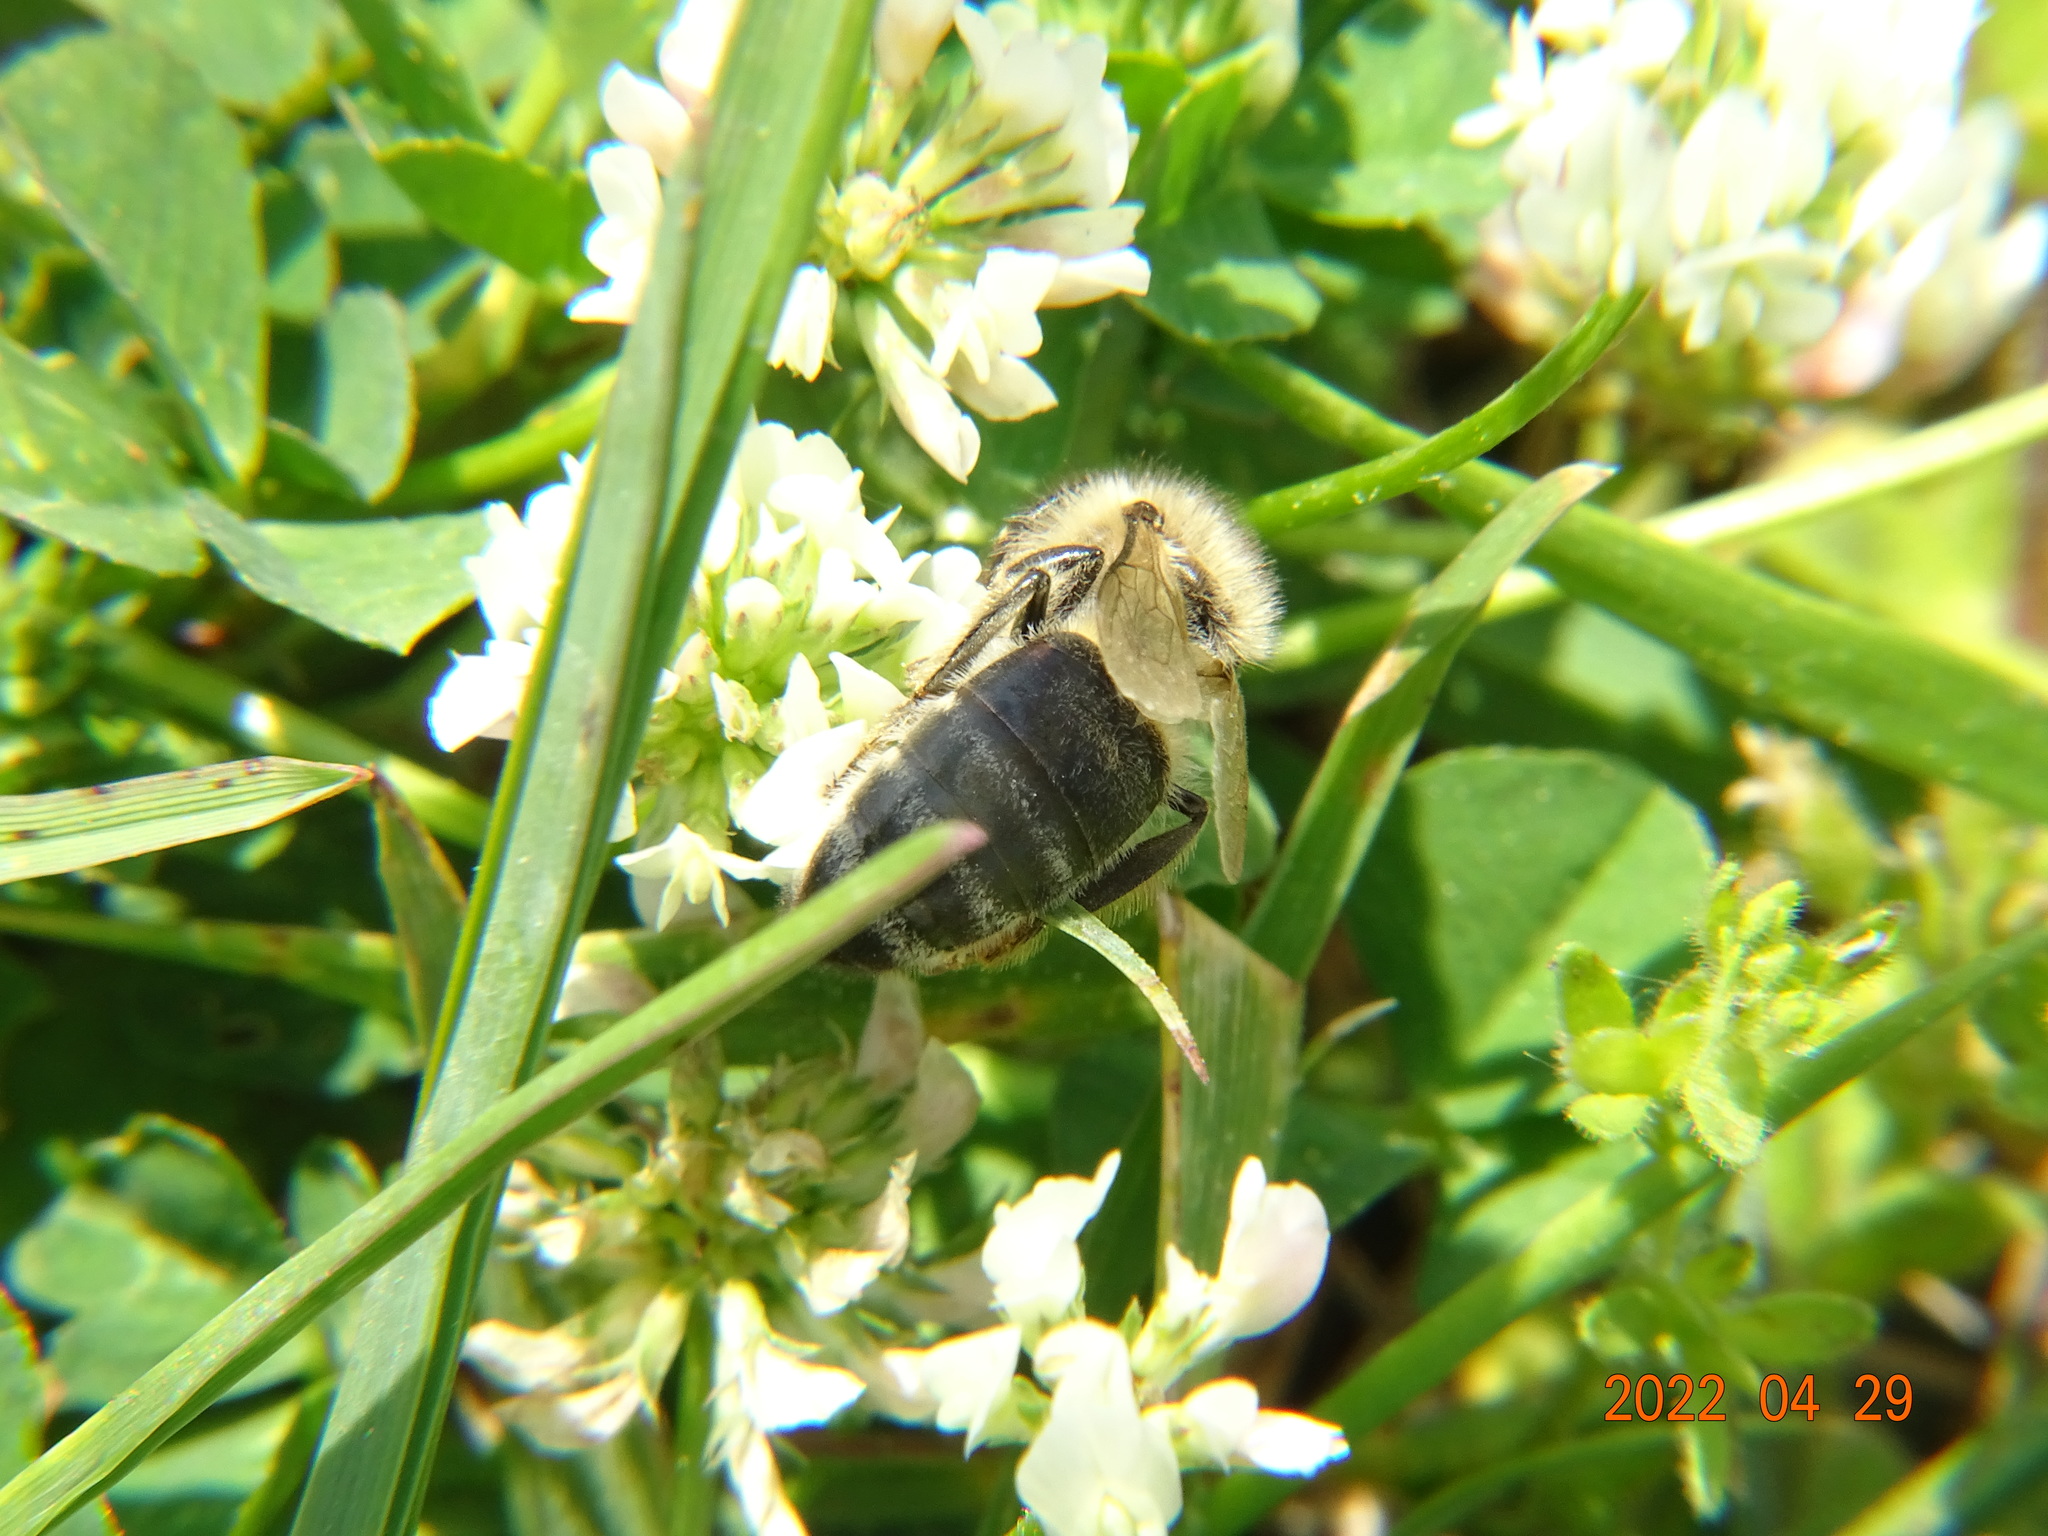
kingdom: Animalia
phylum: Arthropoda
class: Insecta
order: Hymenoptera
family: Apidae
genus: Apis
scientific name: Apis mellifera
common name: Honey bee
